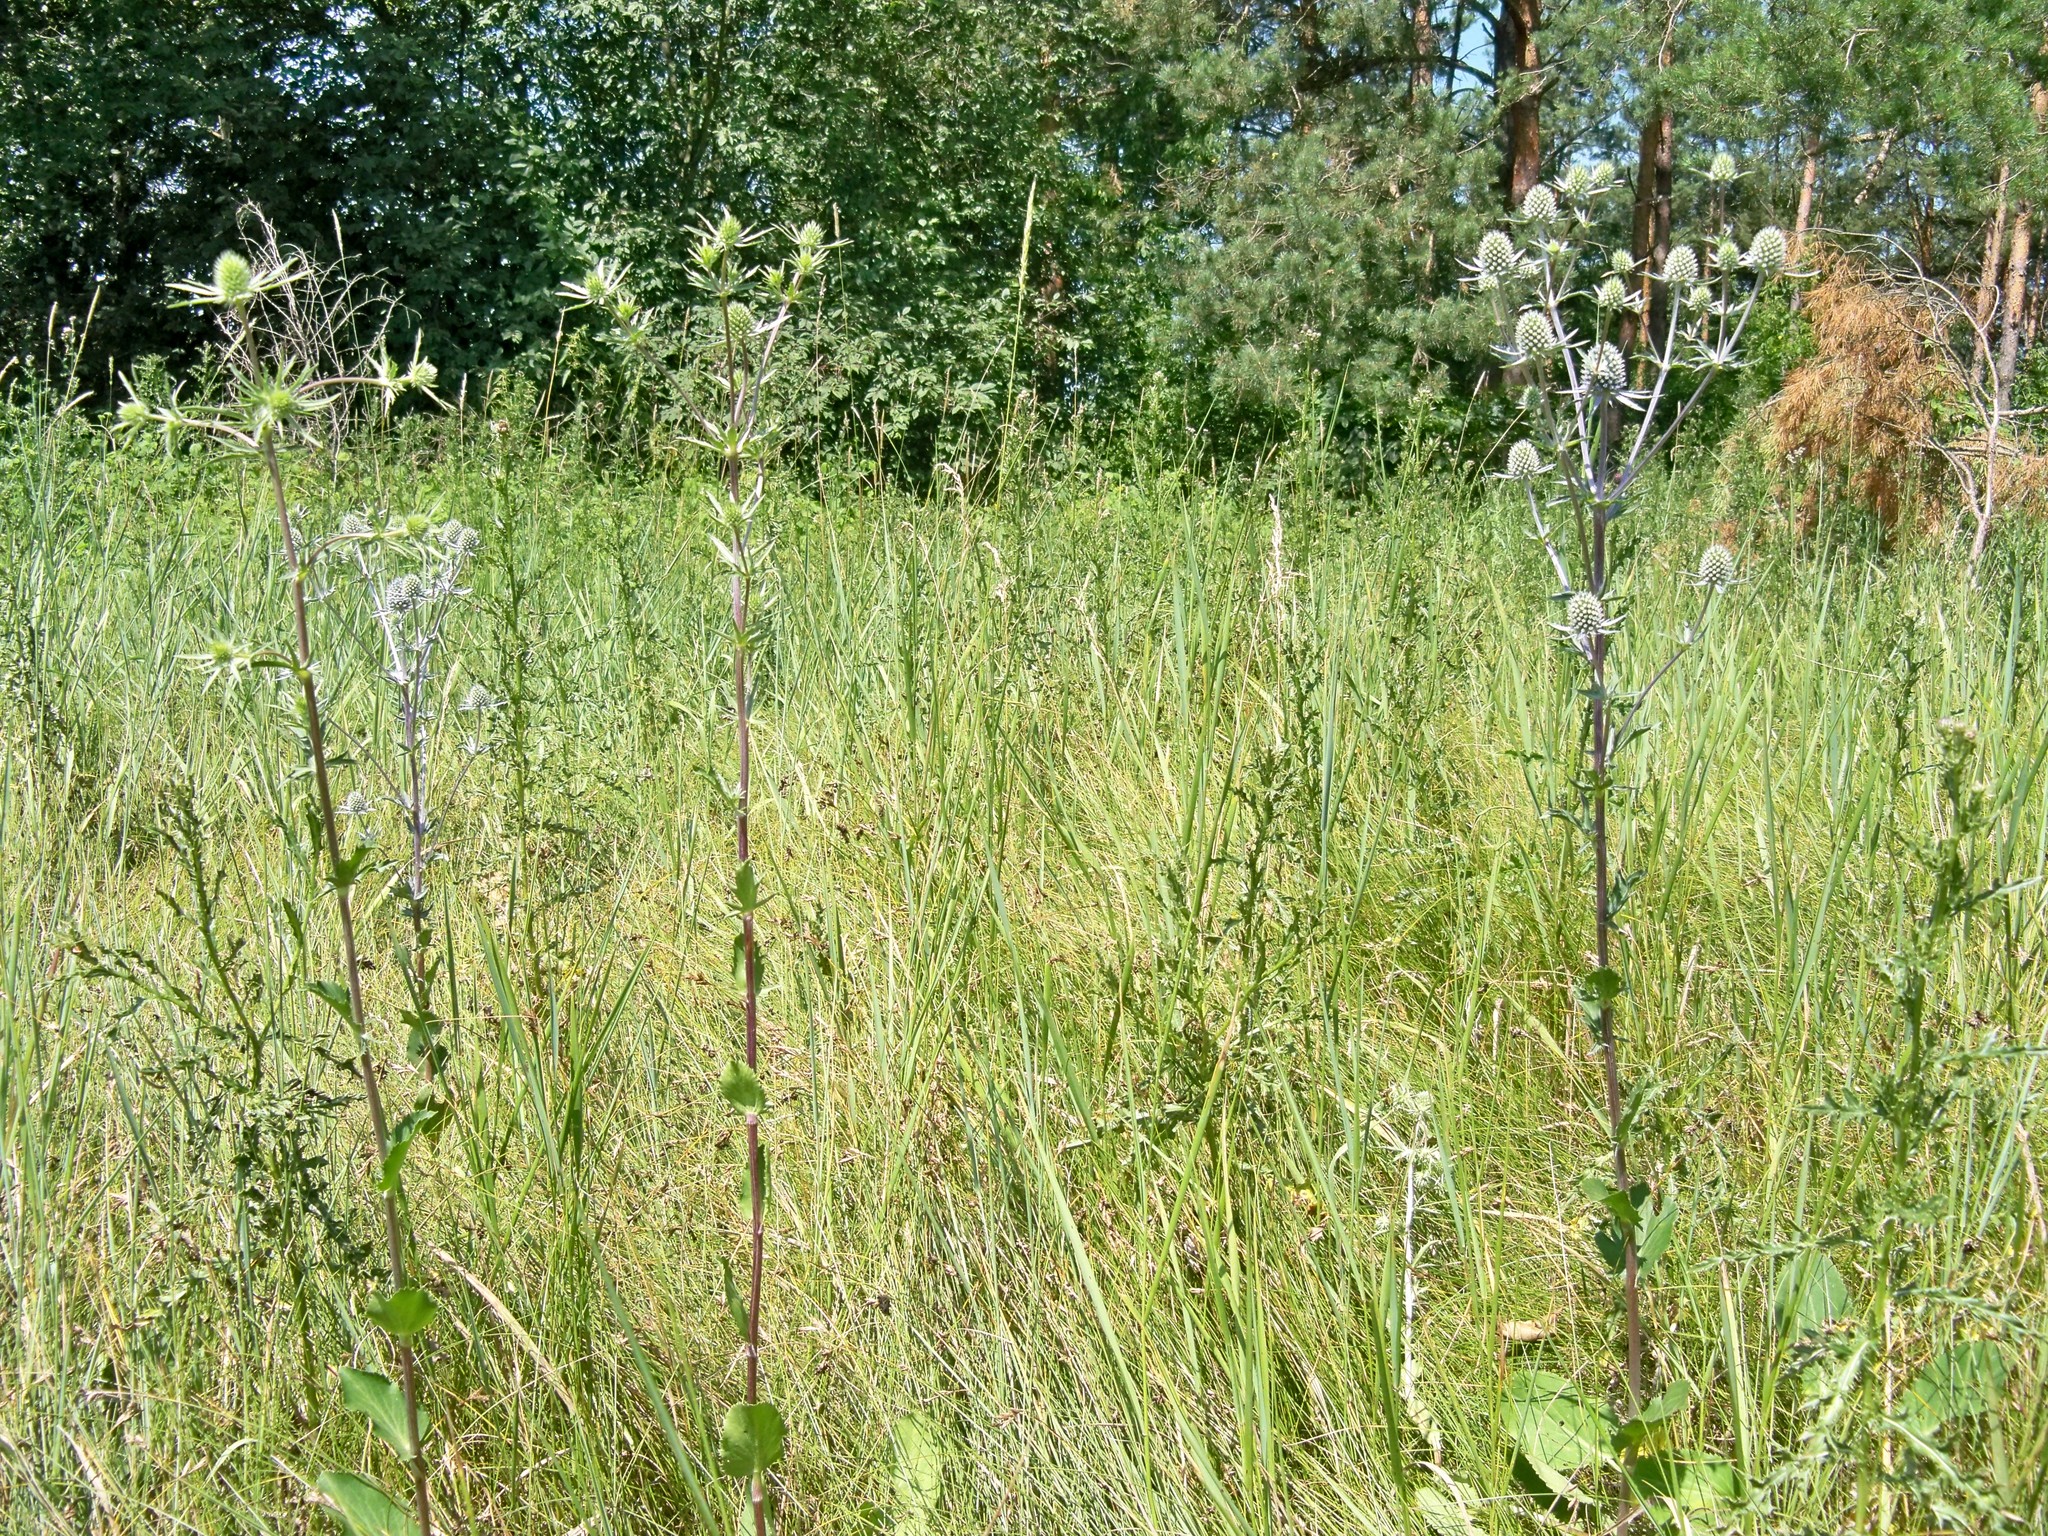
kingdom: Plantae
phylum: Tracheophyta
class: Magnoliopsida
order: Apiales
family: Apiaceae
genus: Eryngium
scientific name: Eryngium planum
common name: Blue eryngo
